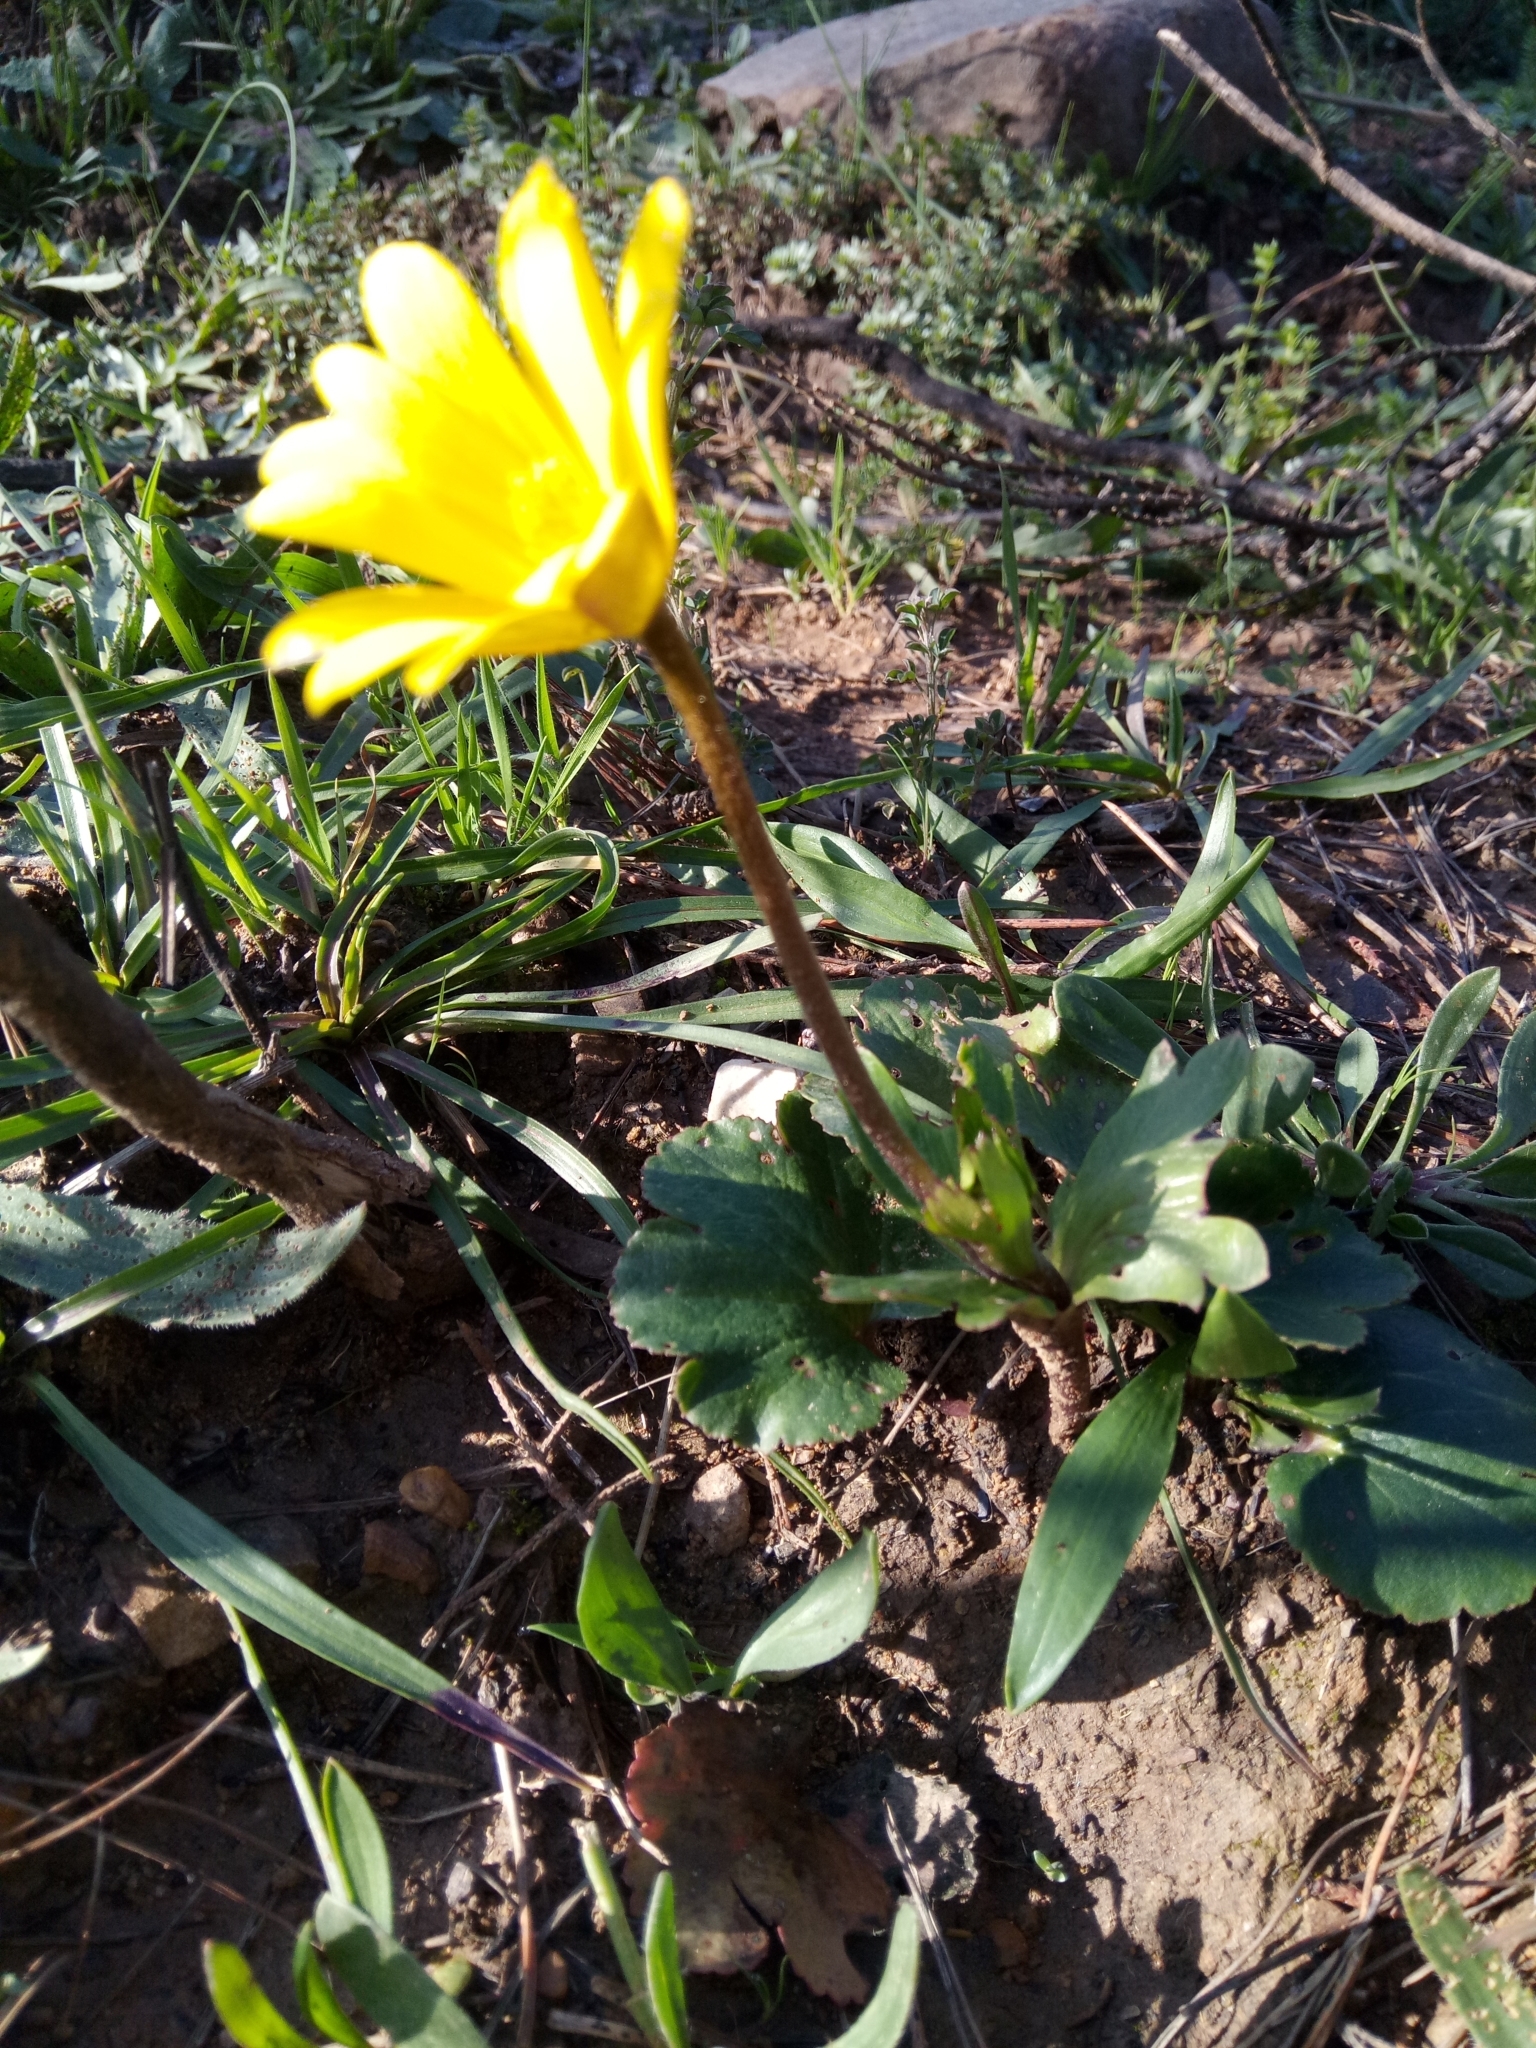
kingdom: Plantae
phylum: Tracheophyta
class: Magnoliopsida
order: Ranunculales
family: Ranunculaceae
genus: Anemone
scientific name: Anemone palmata
